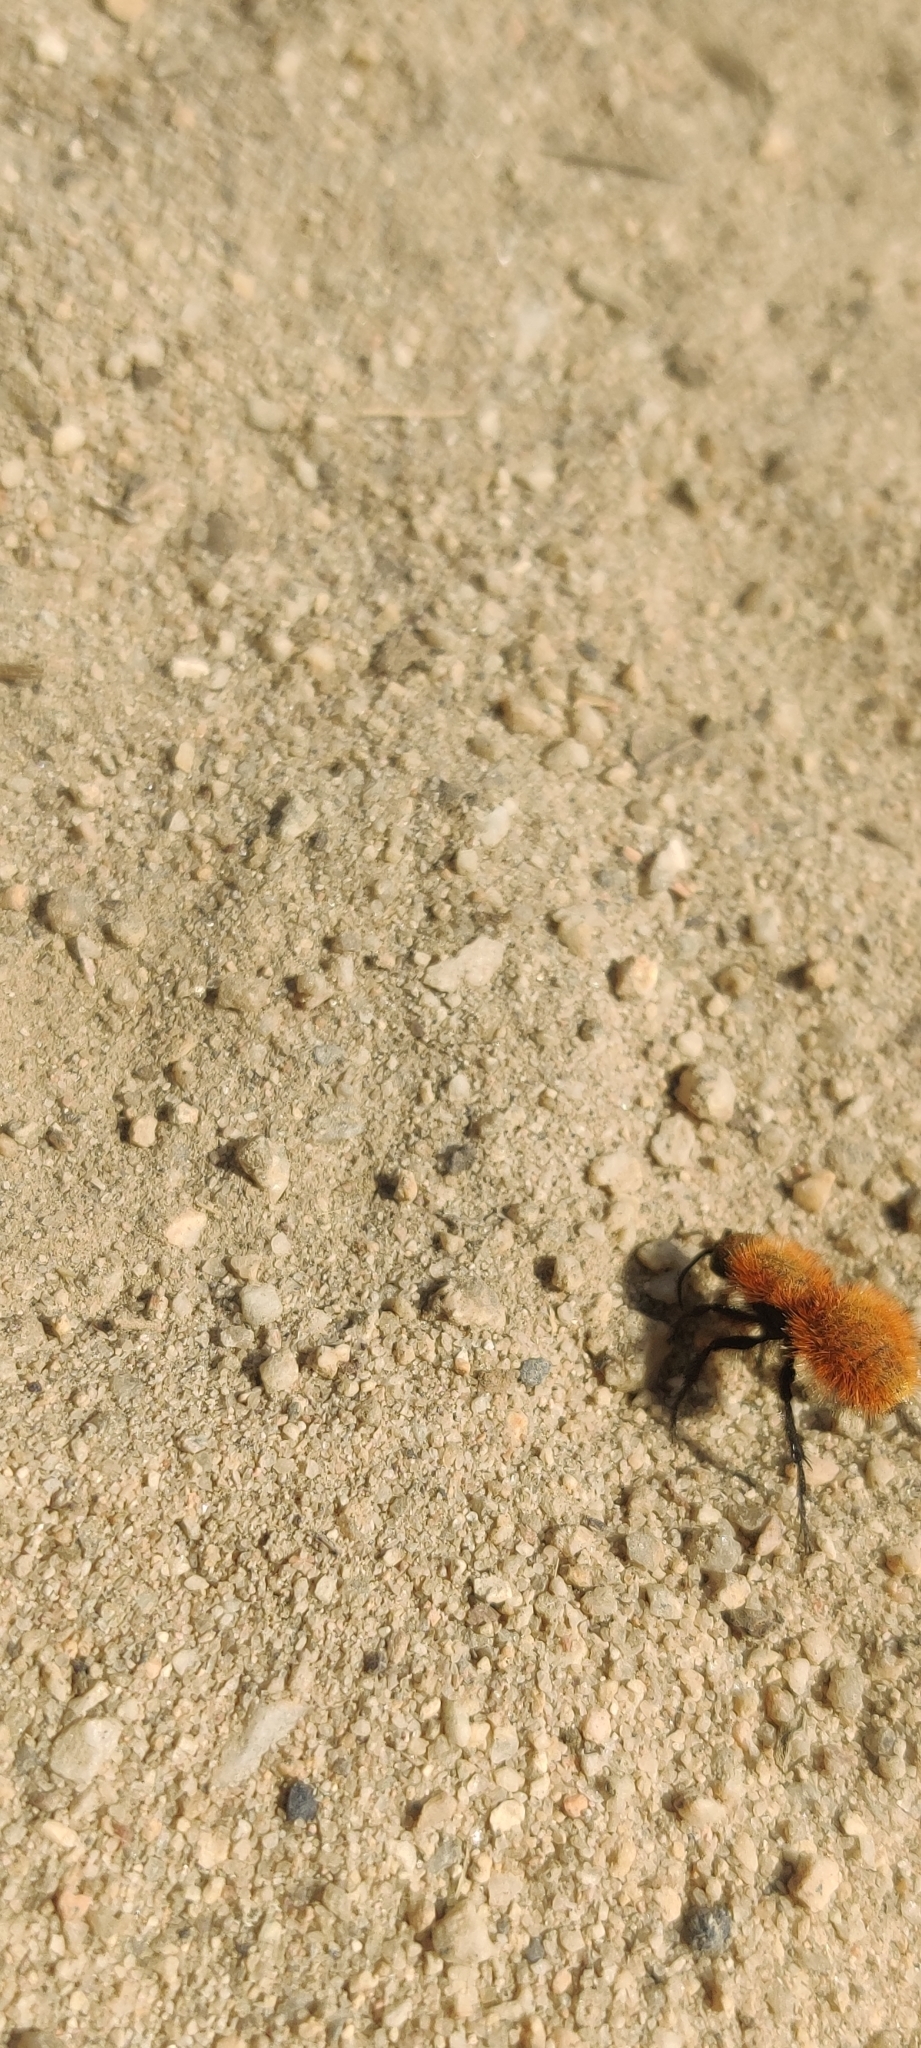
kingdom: Animalia
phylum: Arthropoda
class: Insecta
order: Hymenoptera
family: Mutillidae
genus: Dasymutilla
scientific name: Dasymutilla
